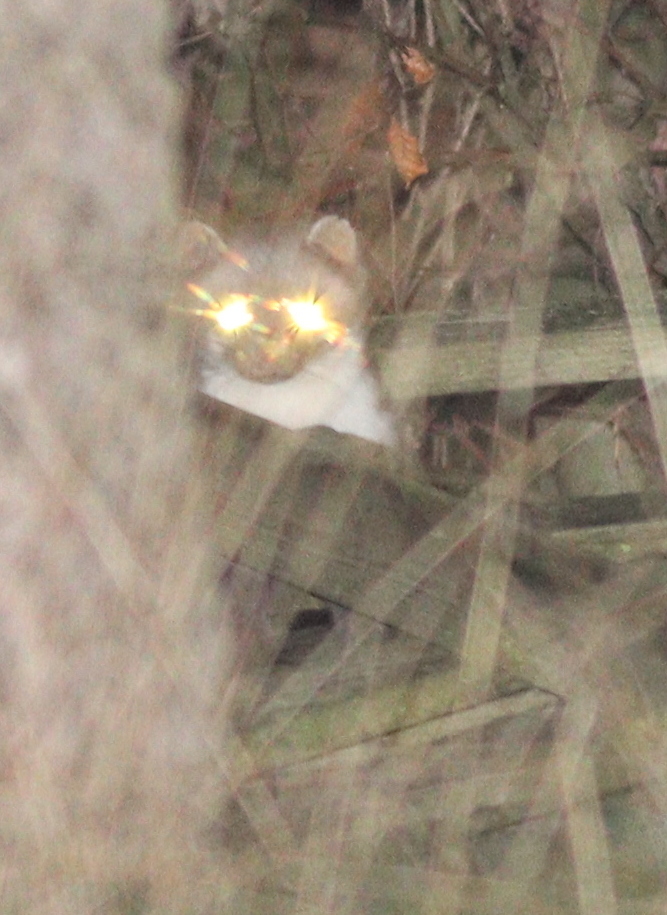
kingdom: Animalia
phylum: Chordata
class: Mammalia
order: Carnivora
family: Mustelidae
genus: Martes
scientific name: Martes foina
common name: Beech marten
